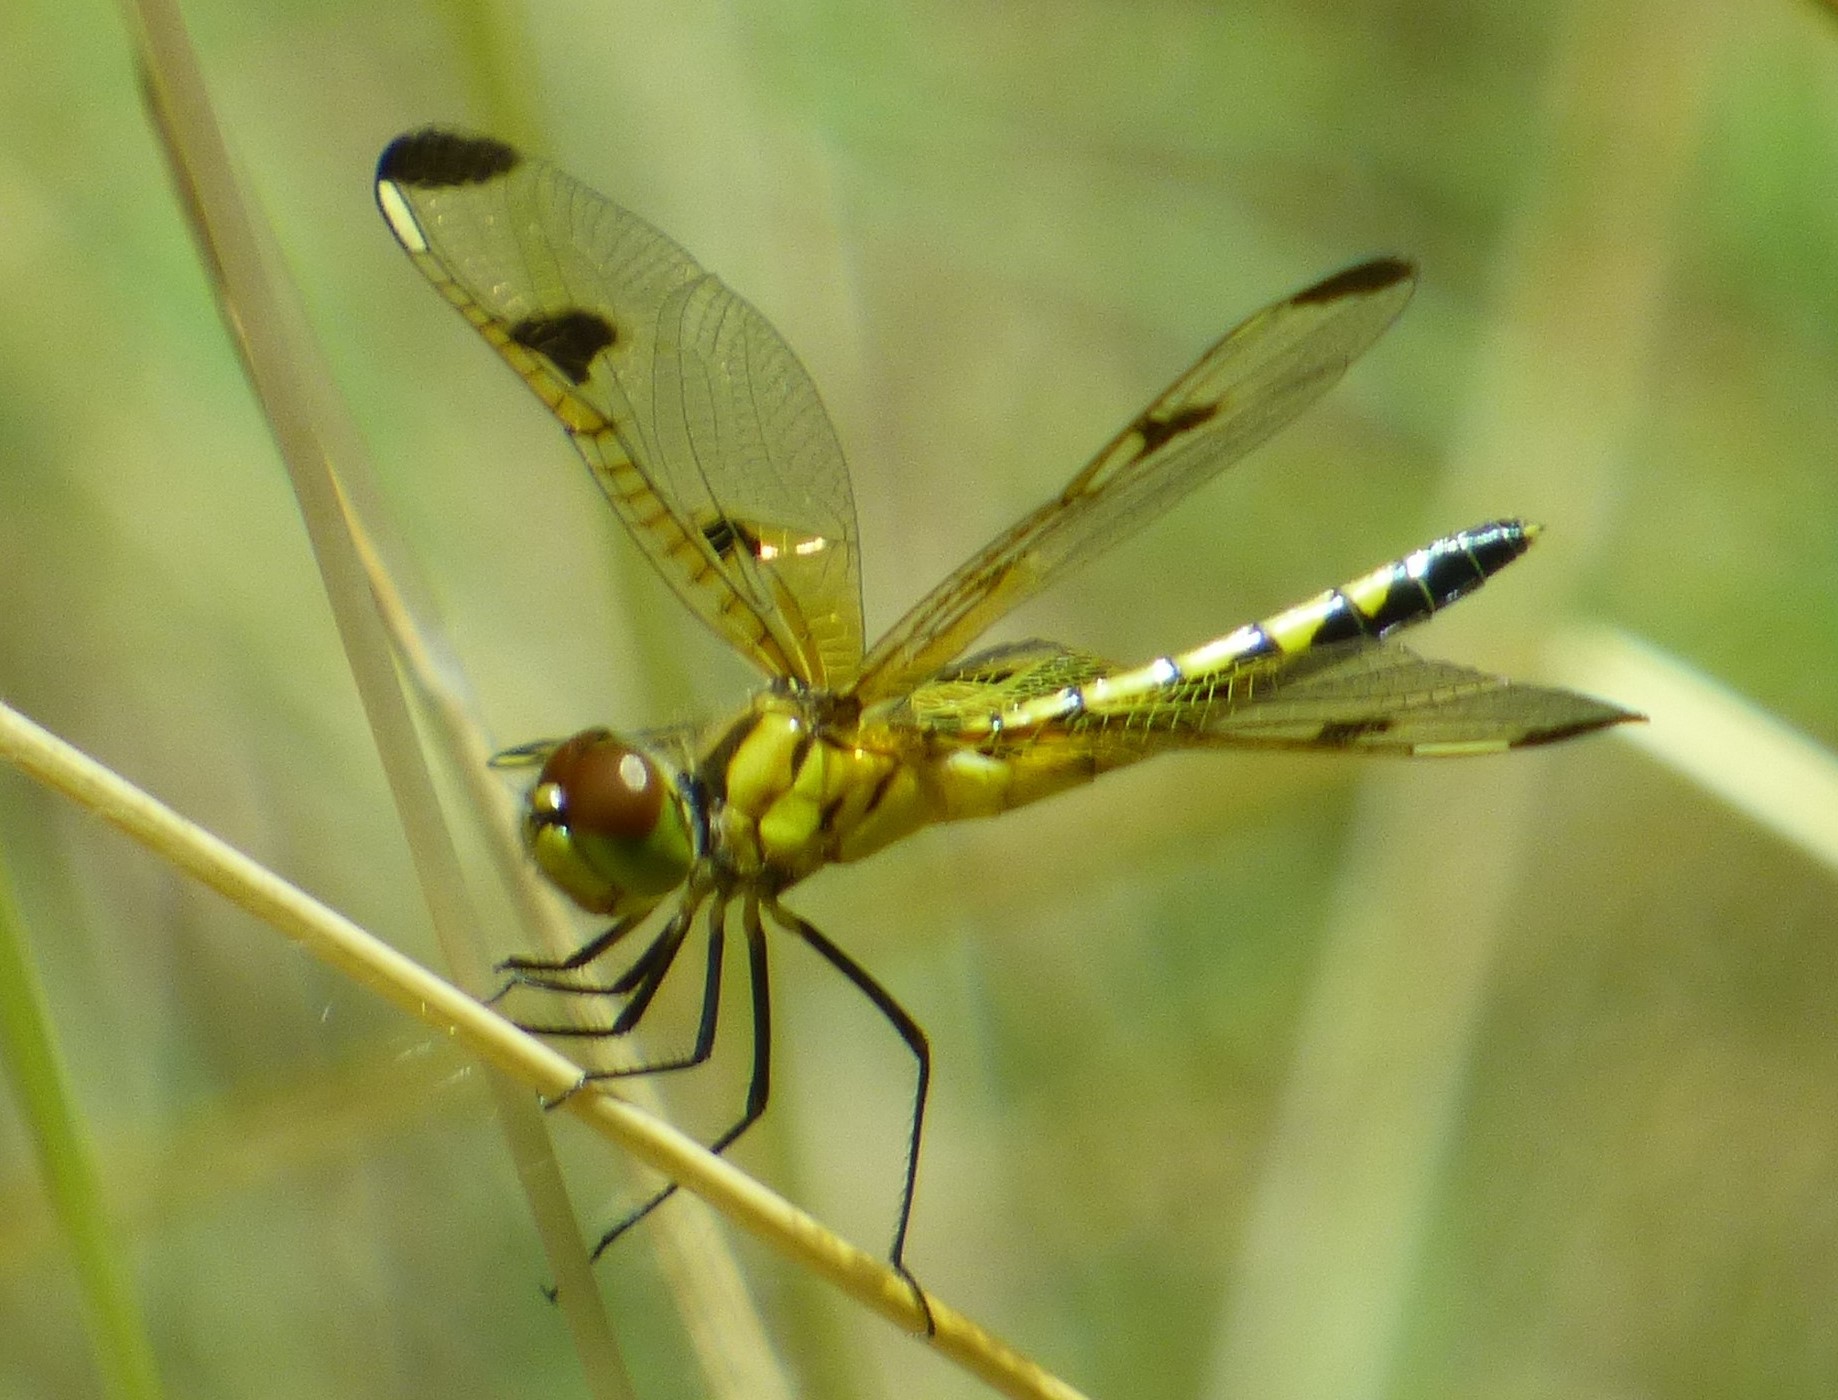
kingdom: Animalia
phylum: Arthropoda
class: Insecta
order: Odonata
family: Libellulidae
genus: Celithemis
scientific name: Celithemis elisa
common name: Calico pennant
